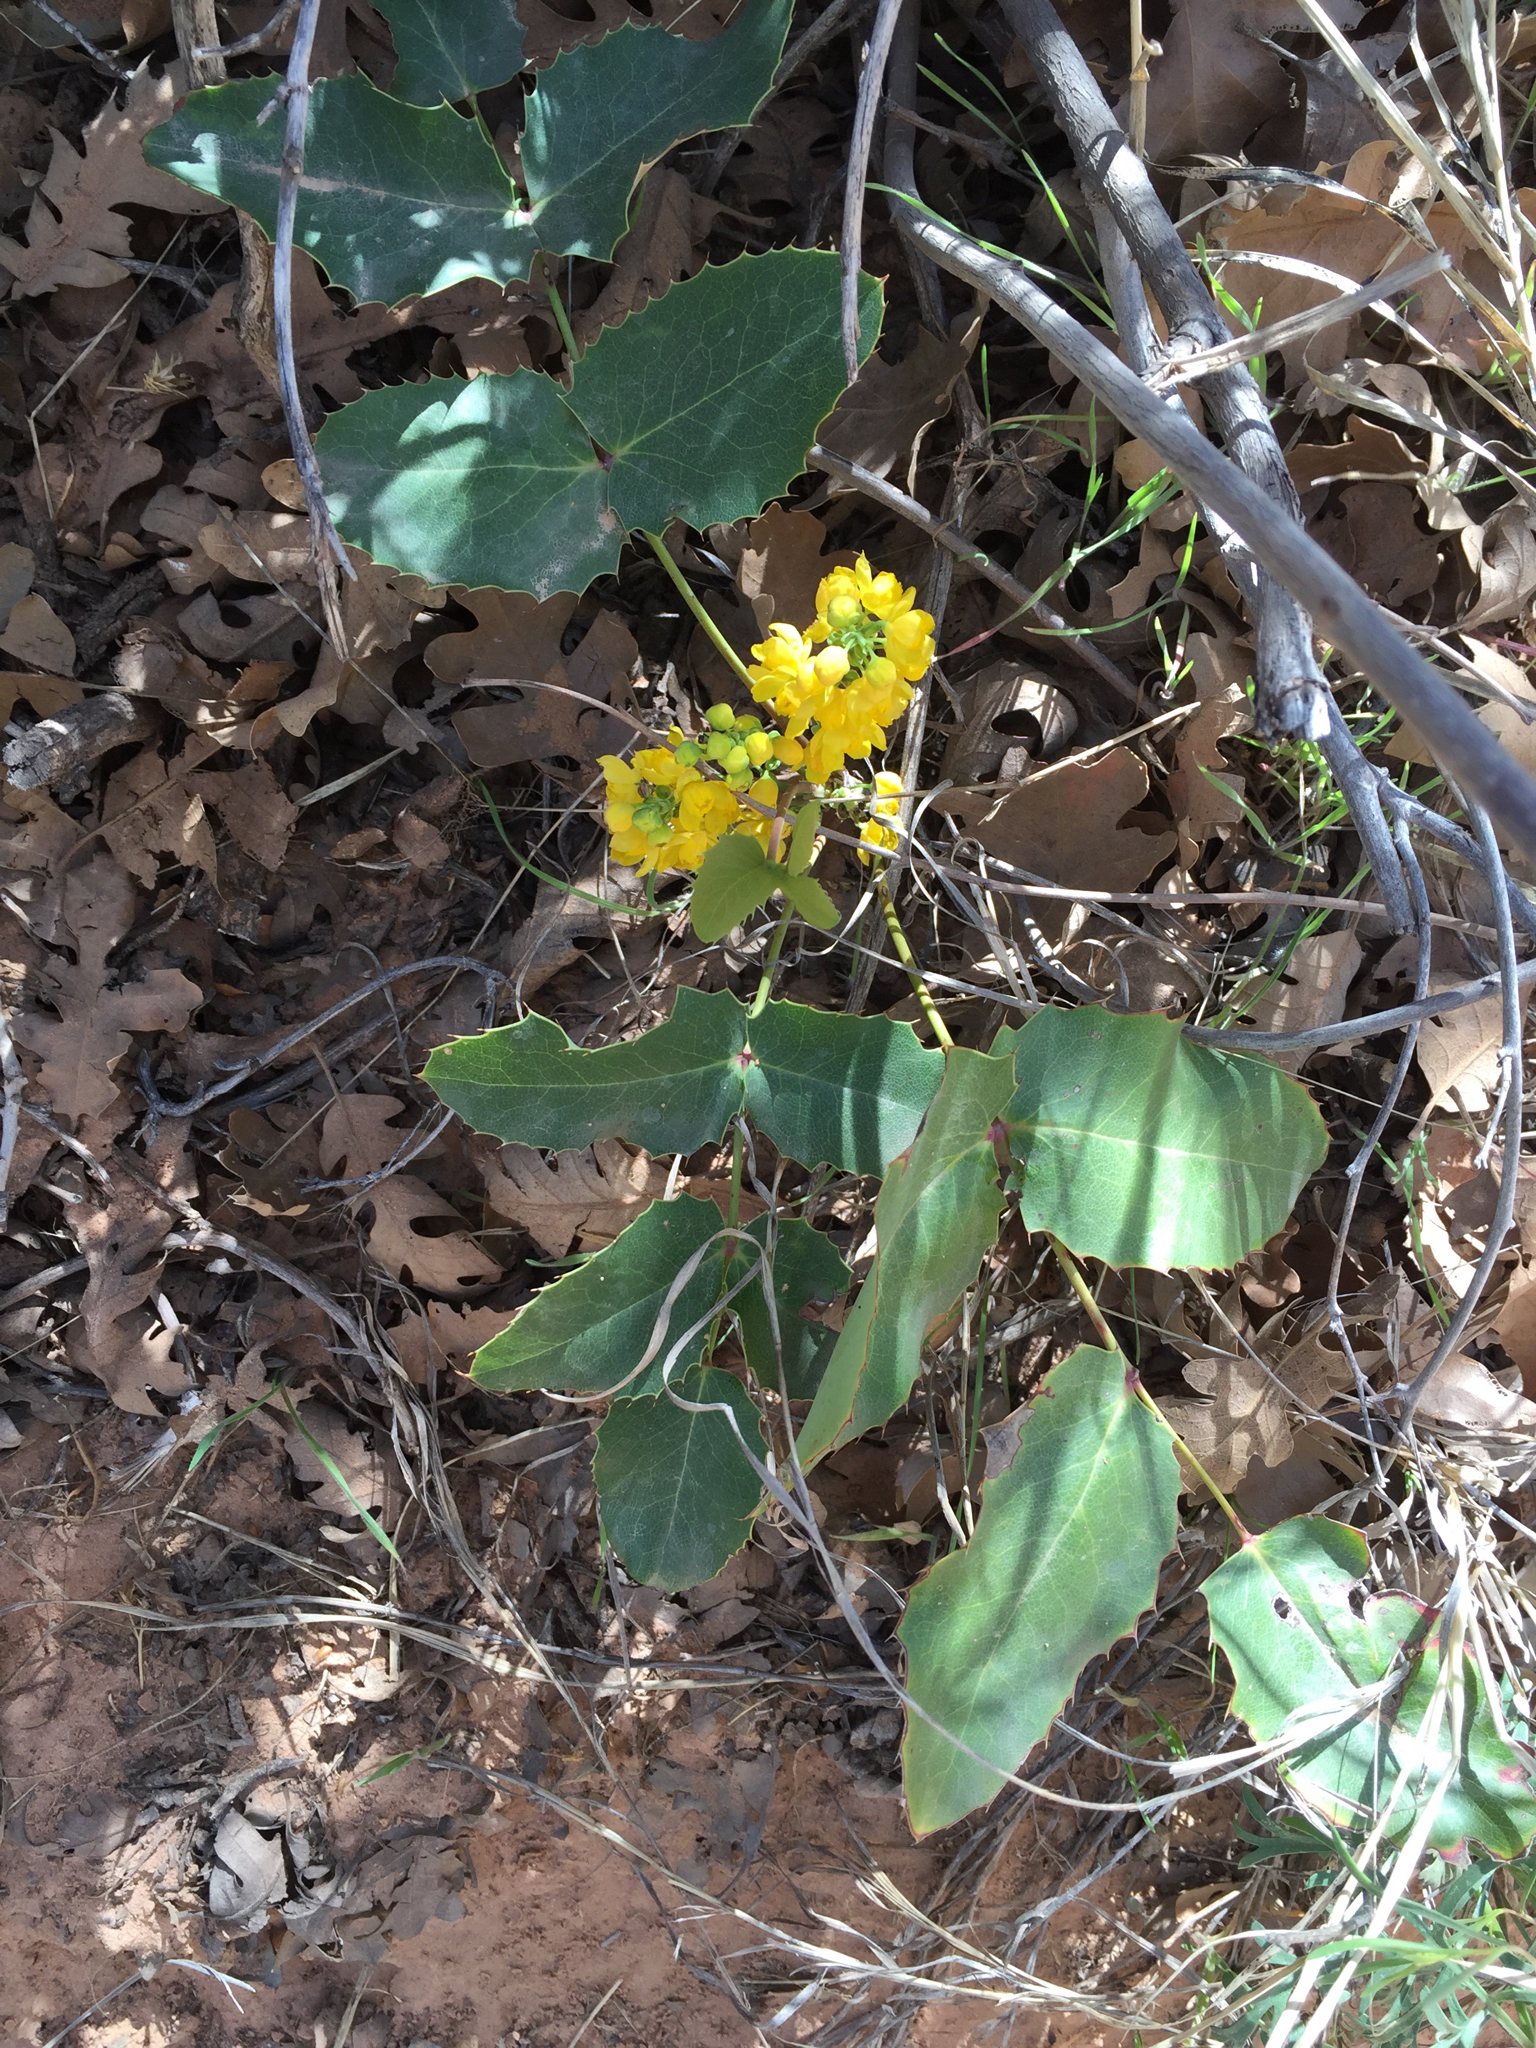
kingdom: Plantae
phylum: Tracheophyta
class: Magnoliopsida
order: Ranunculales
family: Berberidaceae
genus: Mahonia
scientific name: Mahonia repens
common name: Creeping oregon-grape
